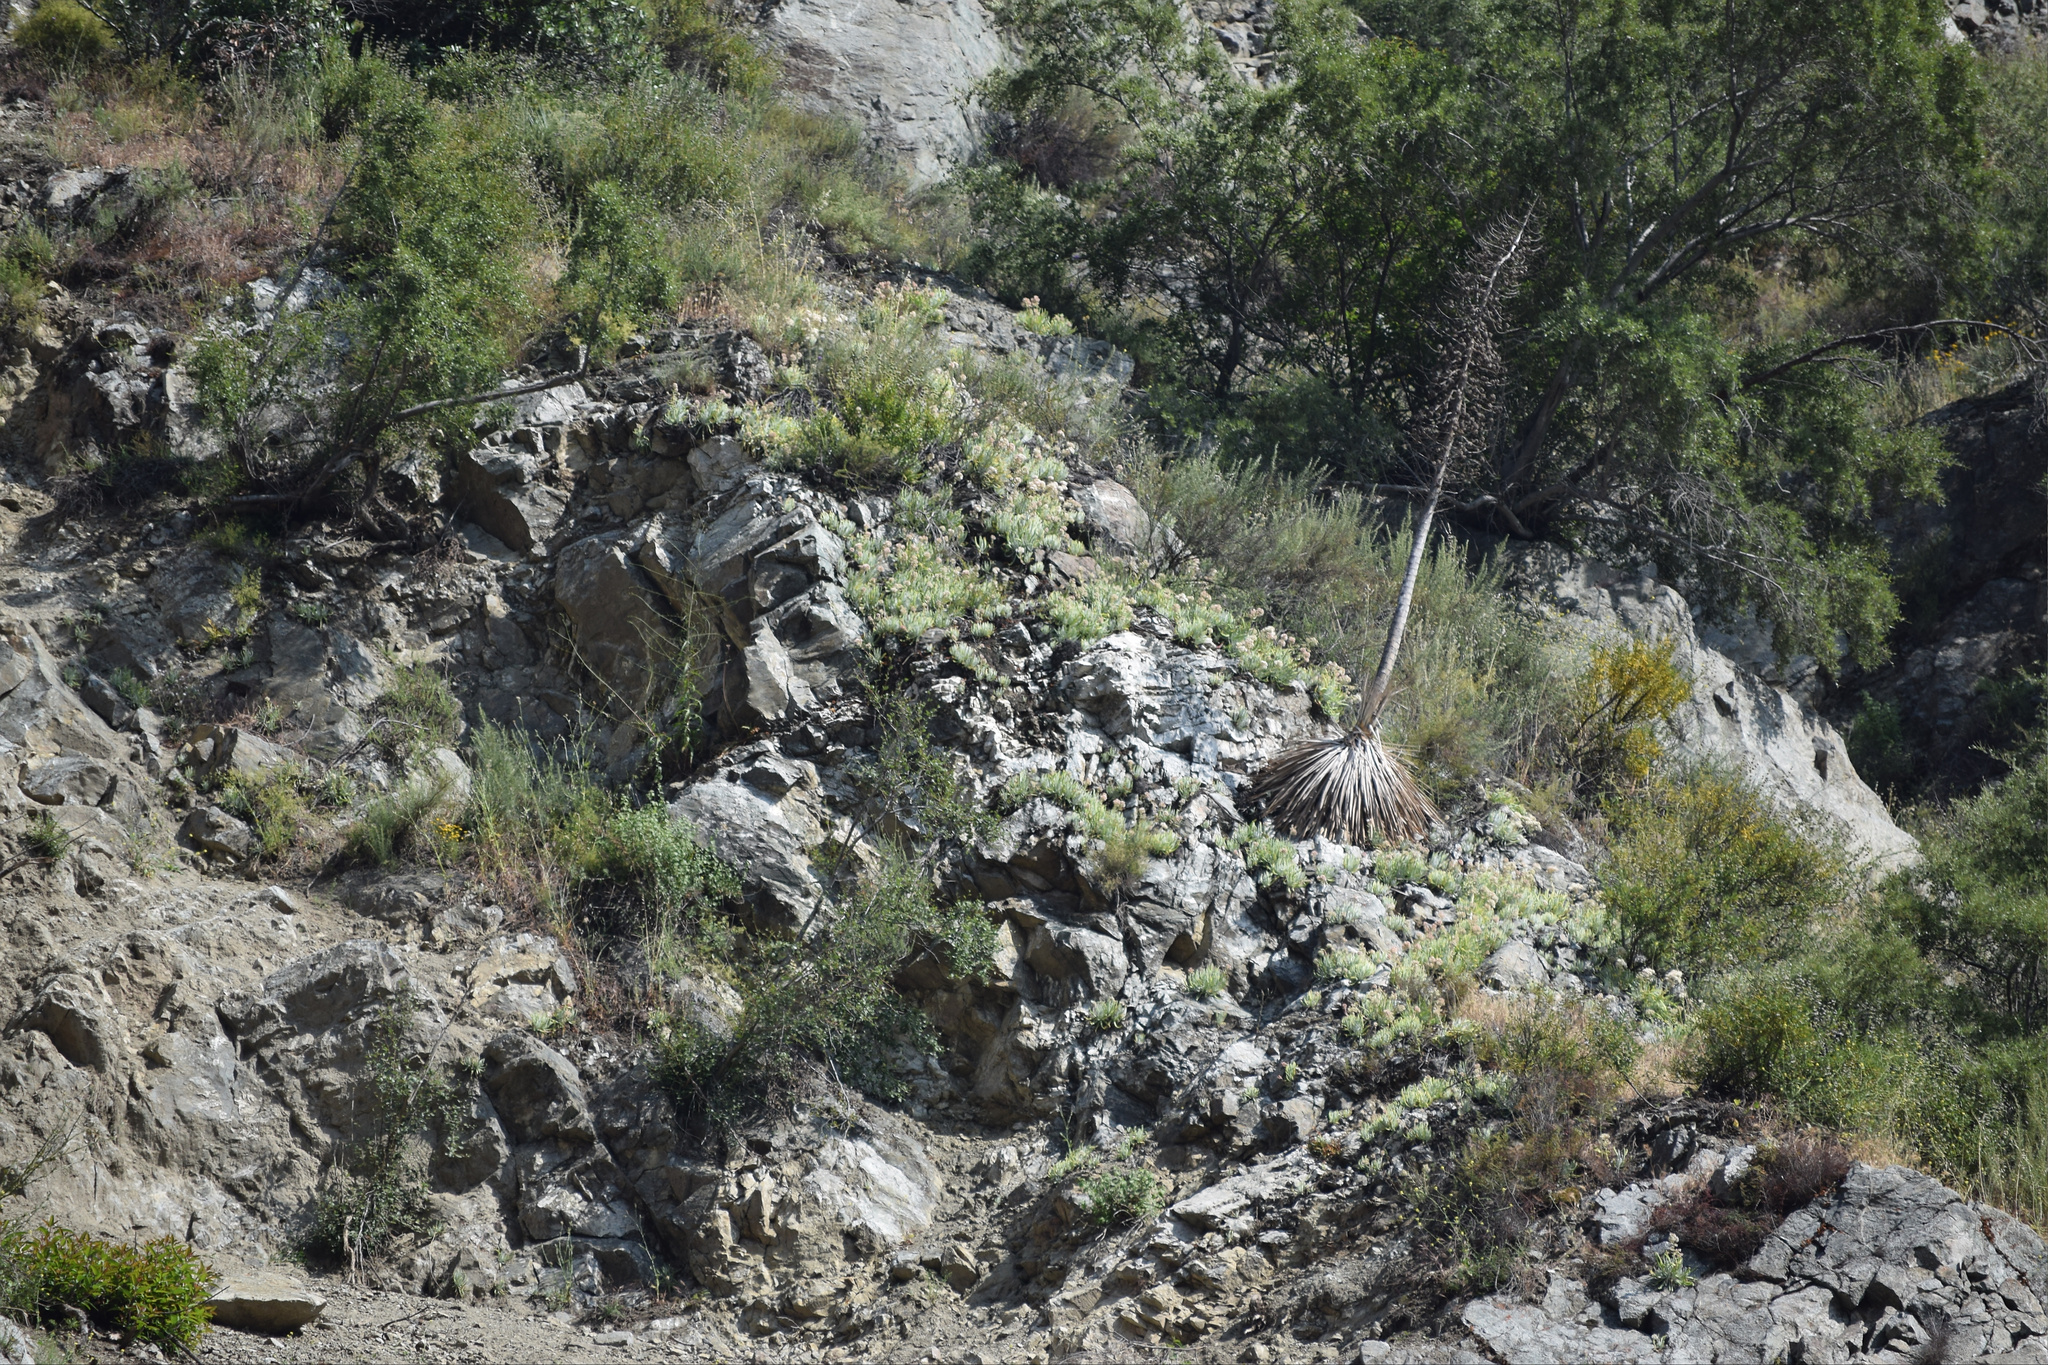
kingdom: Plantae
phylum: Tracheophyta
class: Magnoliopsida
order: Saxifragales
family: Crassulaceae
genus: Dudleya
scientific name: Dudleya densiflora
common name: San gabriel mountains dudleya
